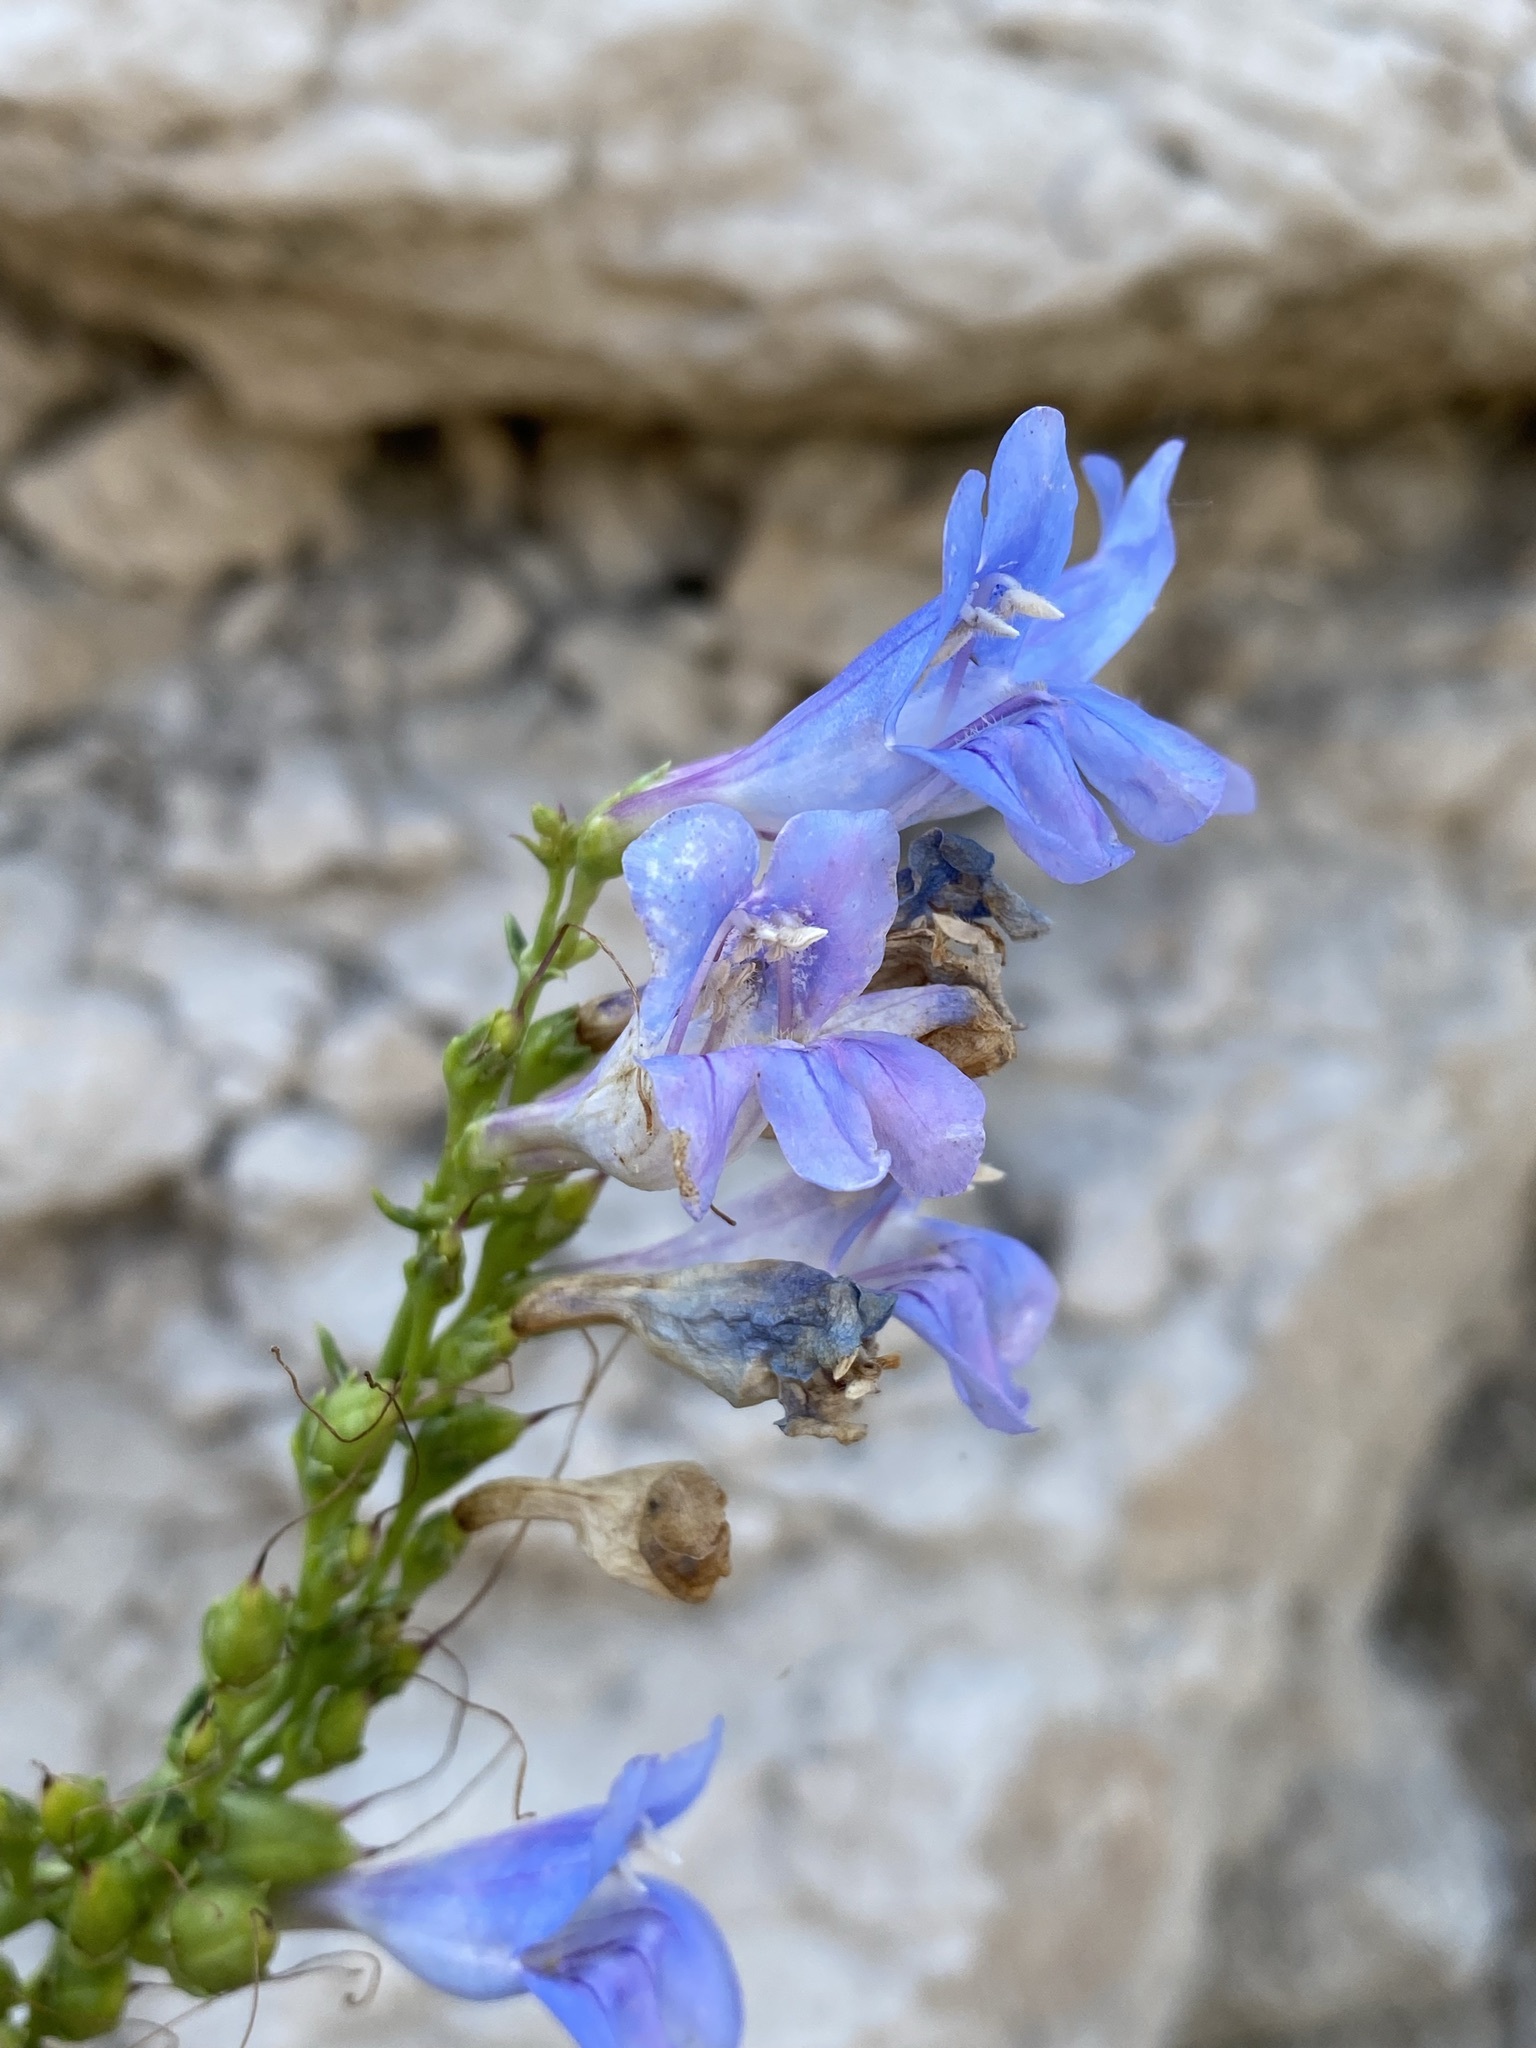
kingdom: Plantae
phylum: Tracheophyta
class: Magnoliopsida
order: Lamiales
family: Plantaginaceae
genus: Penstemon
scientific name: Penstemon glaber
